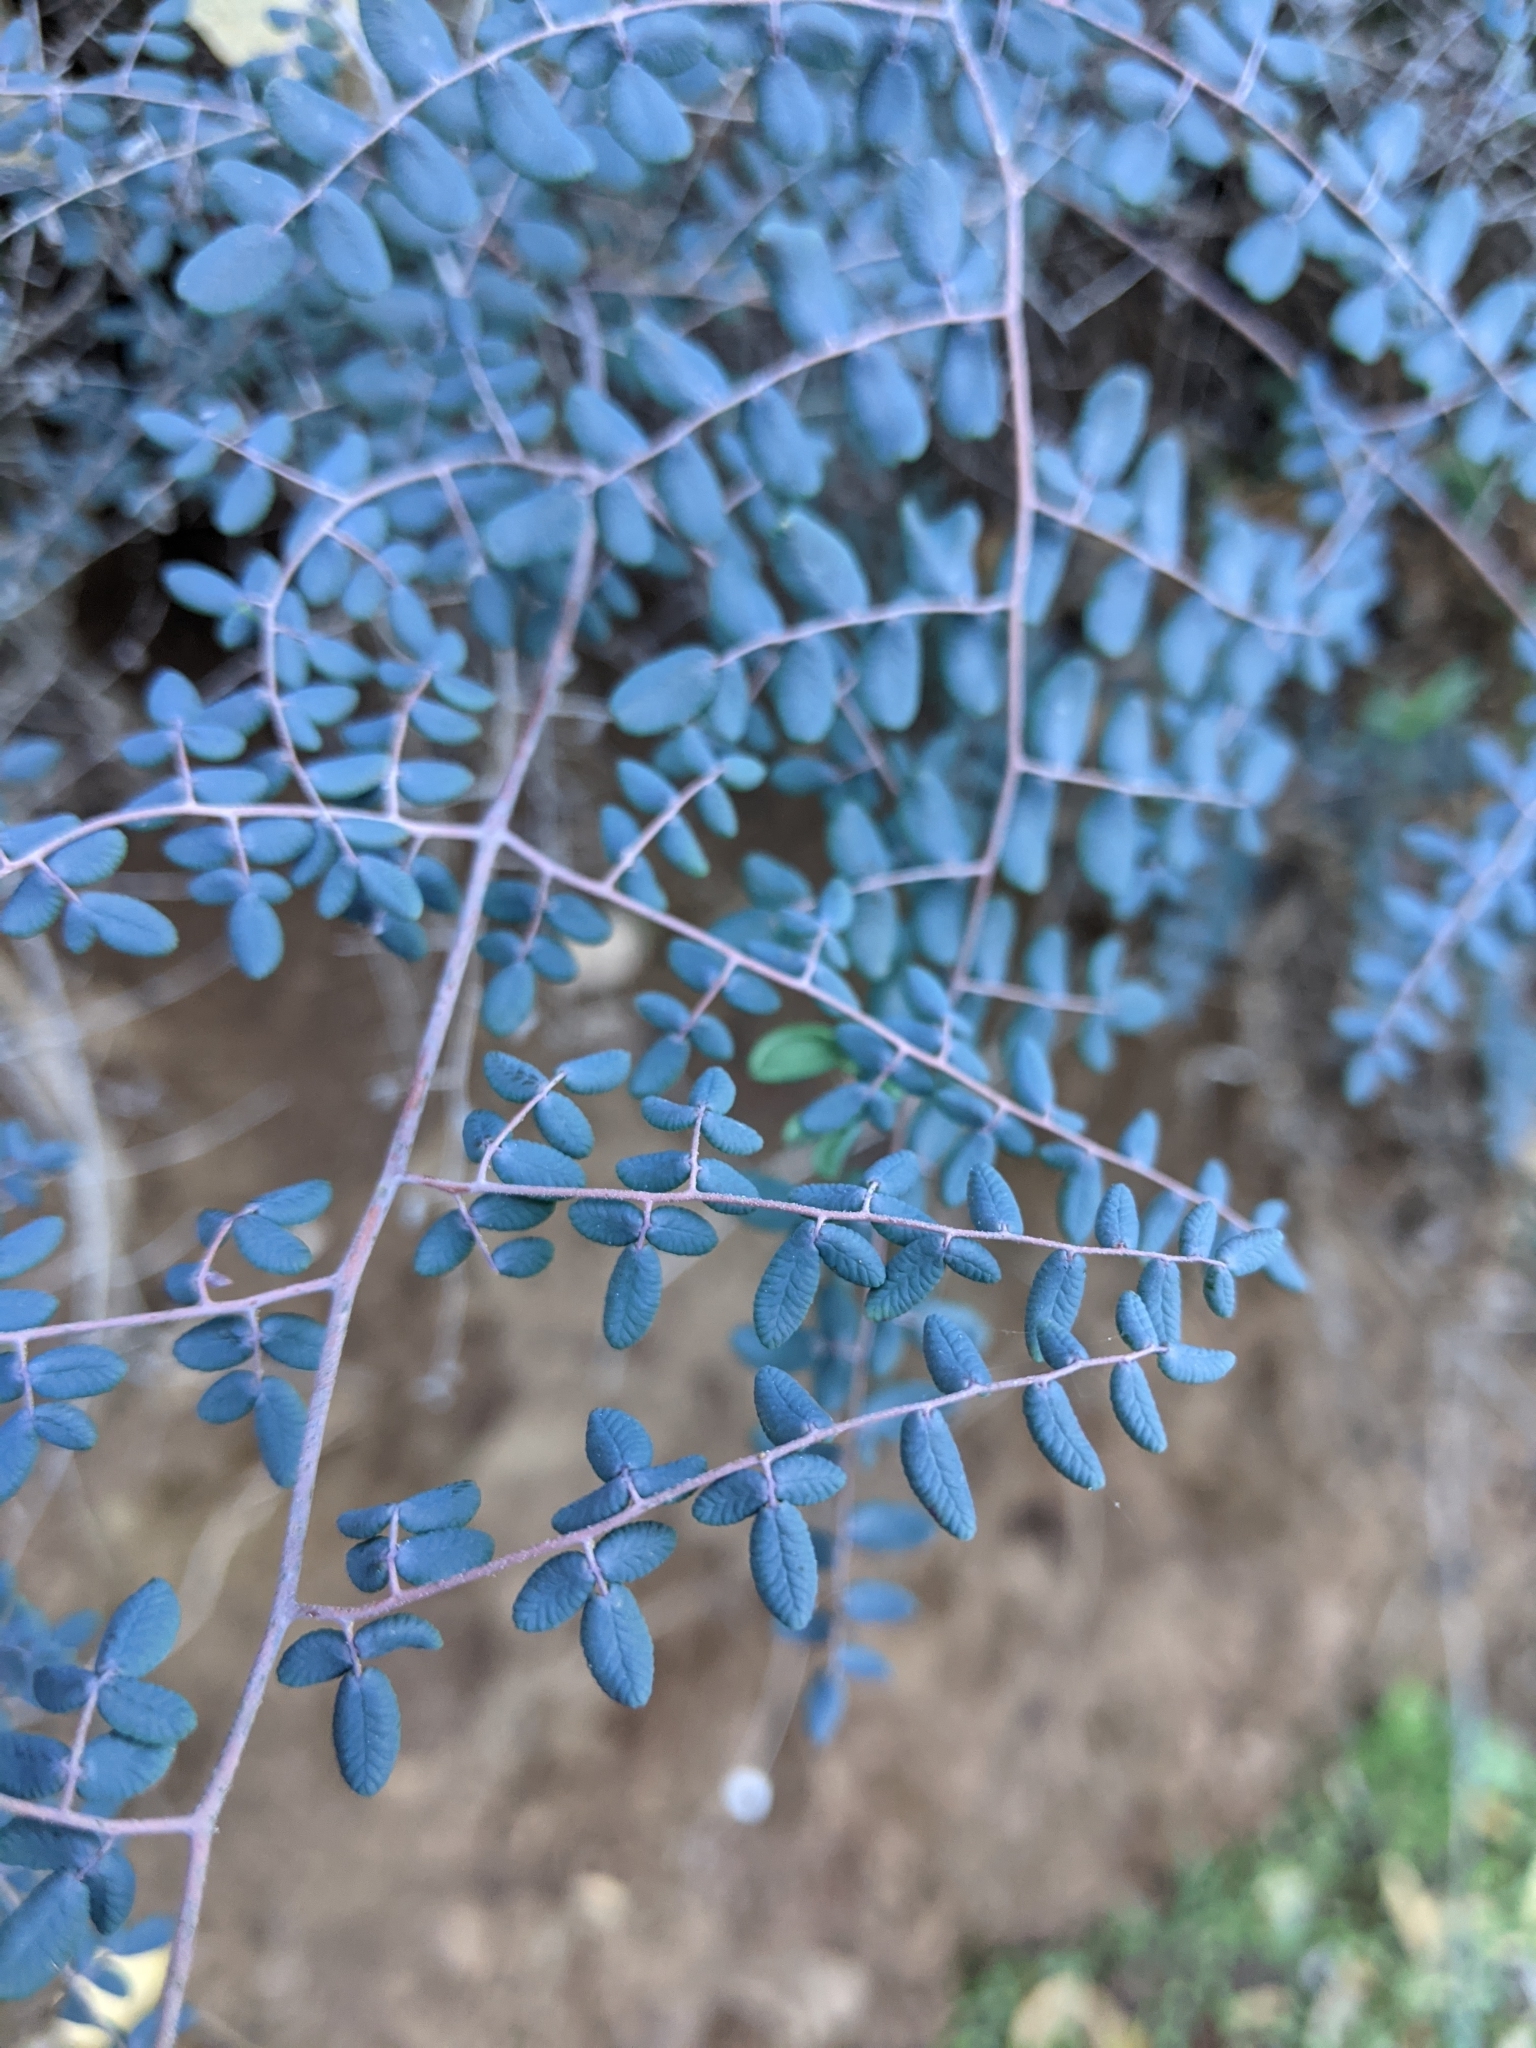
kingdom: Plantae
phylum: Tracheophyta
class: Polypodiopsida
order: Polypodiales
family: Pteridaceae
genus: Pellaea
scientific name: Pellaea andromedifolia
